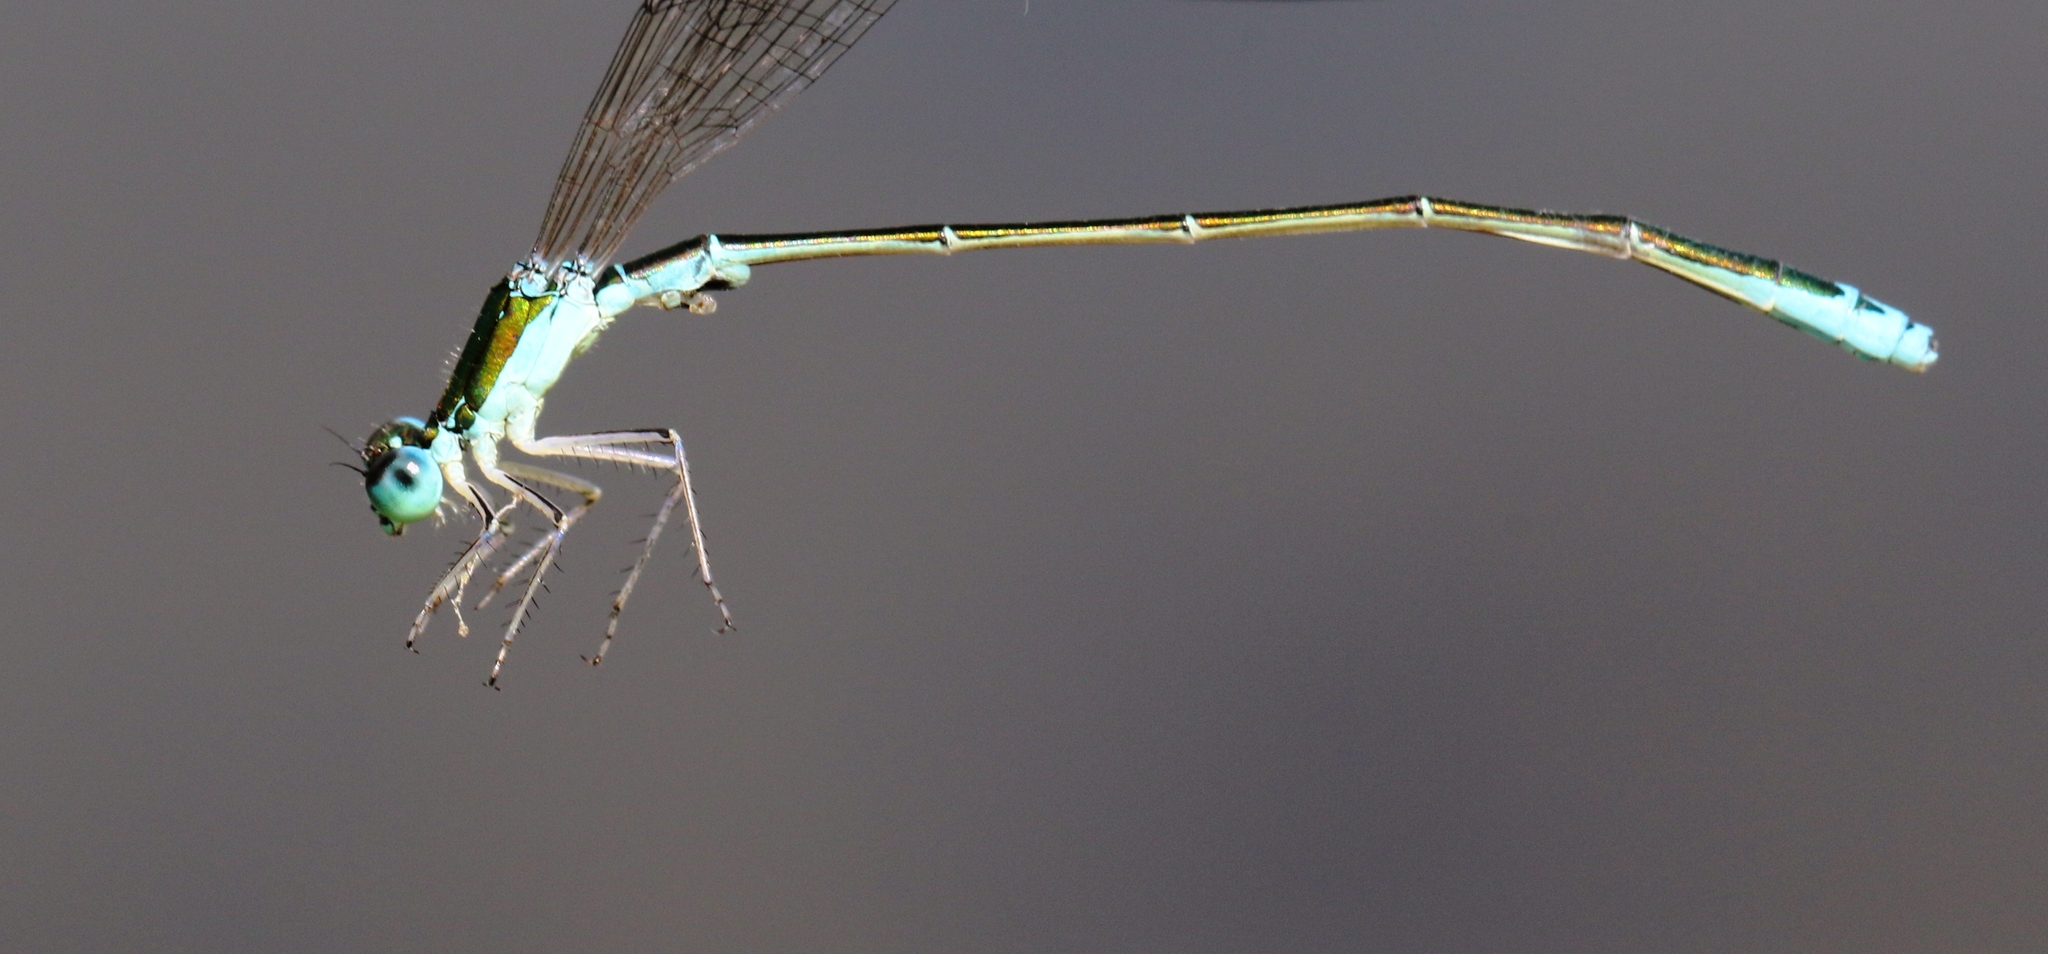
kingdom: Animalia
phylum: Arthropoda
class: Insecta
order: Odonata
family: Coenagrionidae
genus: Nehalennia
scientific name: Nehalennia irene
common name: Sedge sprite
